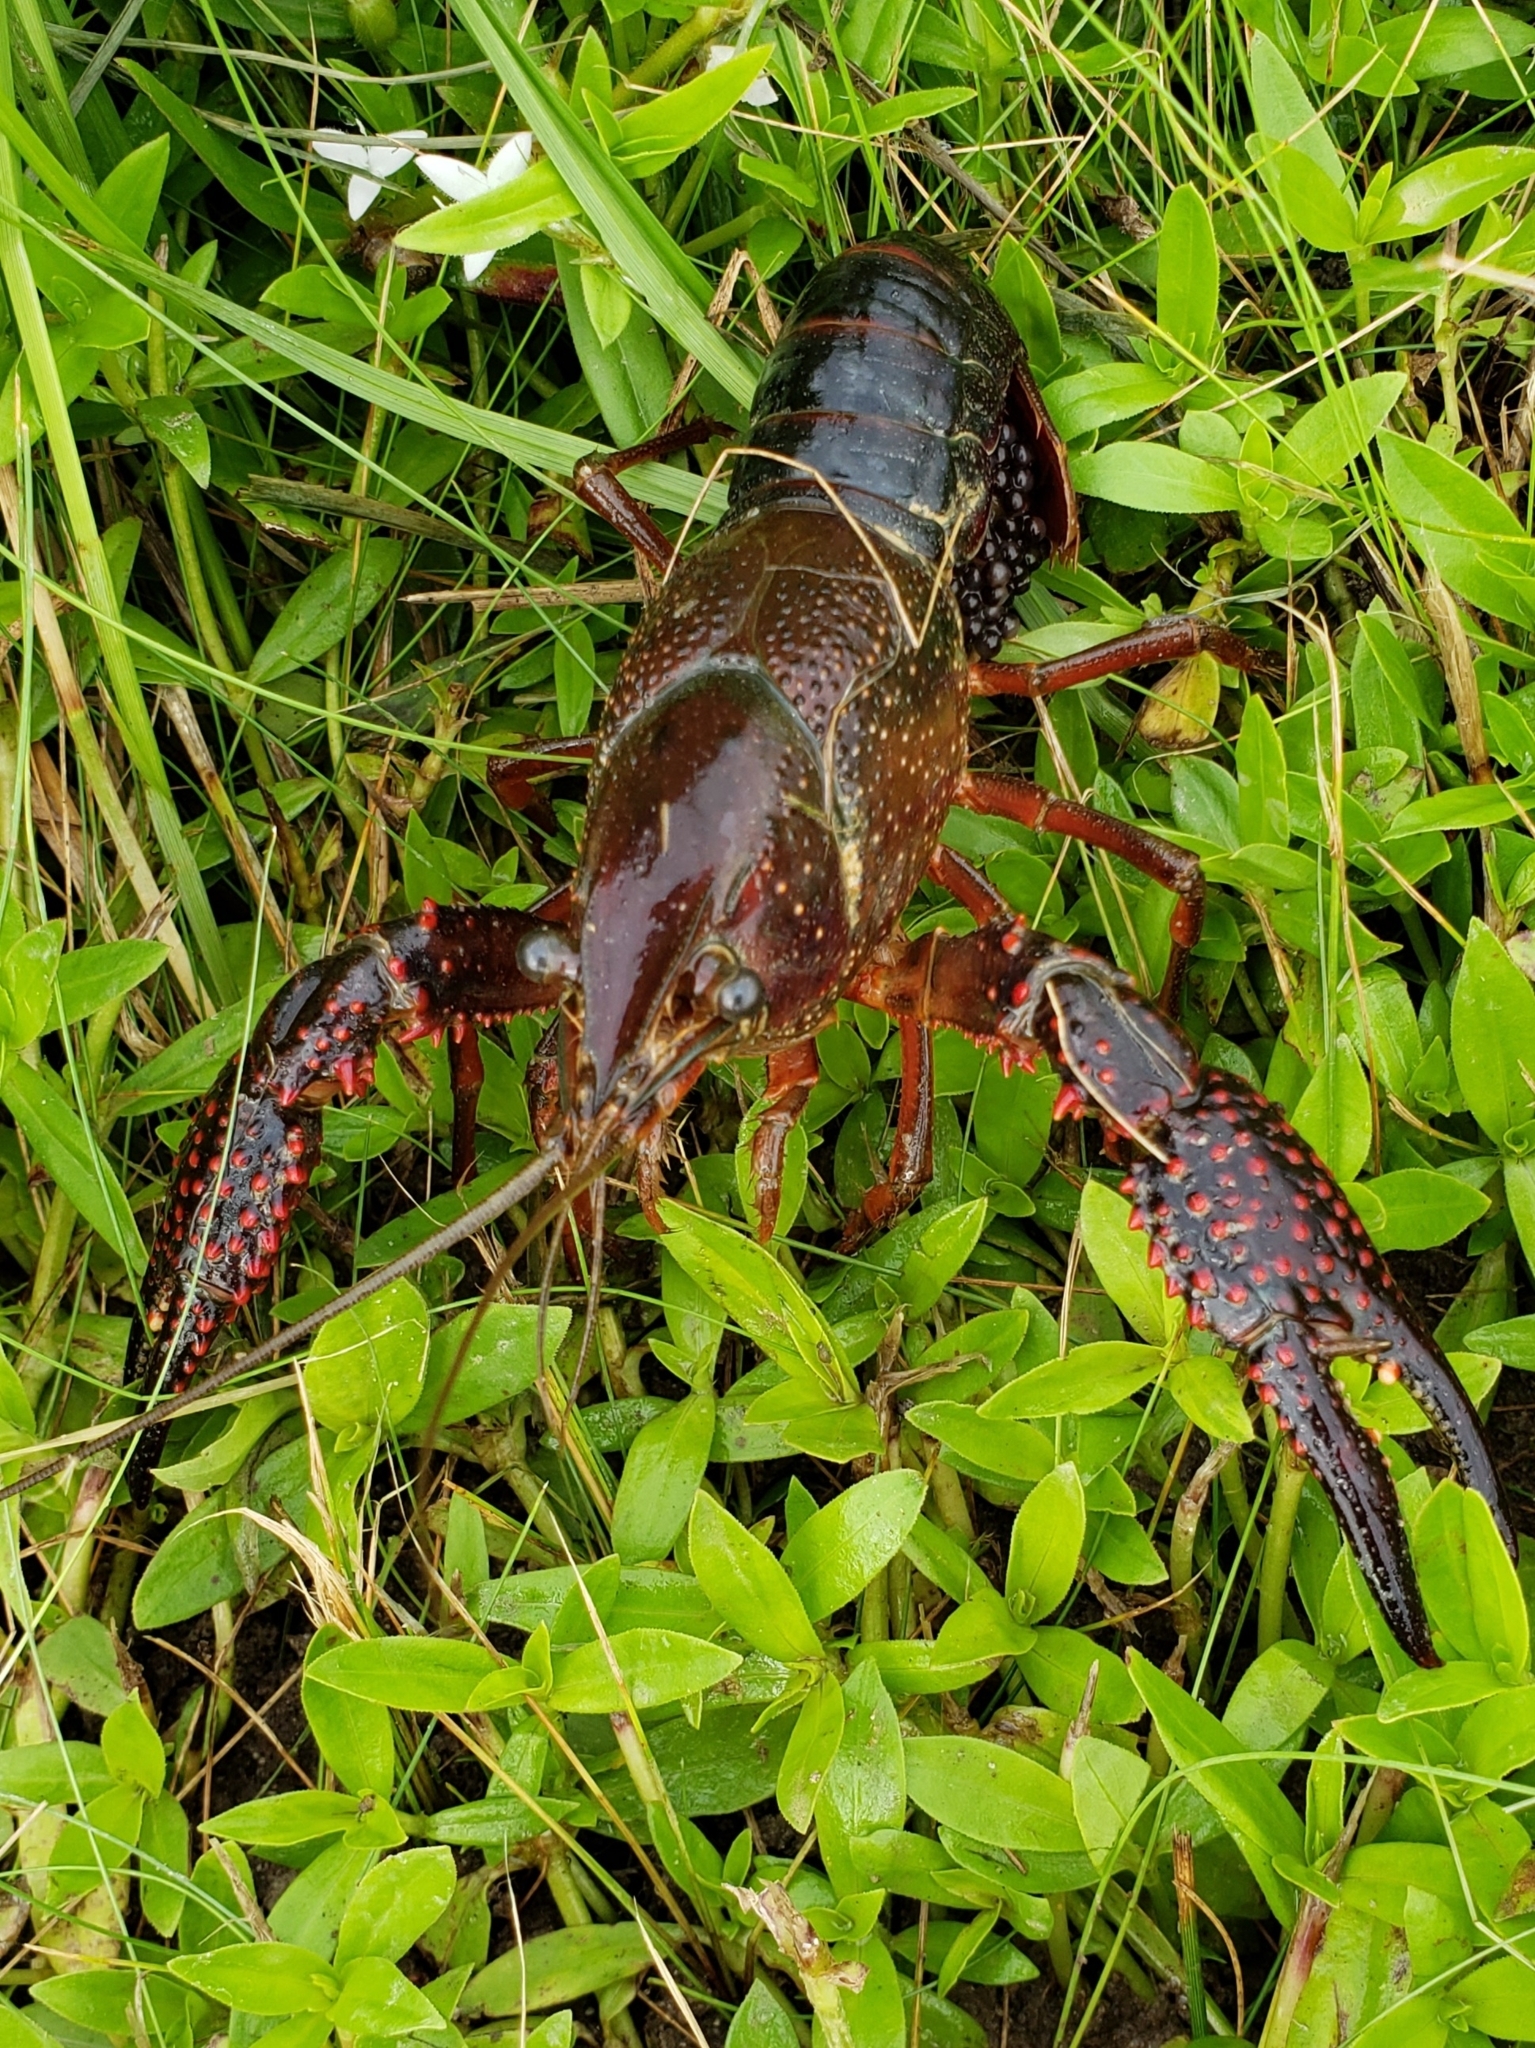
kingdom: Animalia
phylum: Arthropoda
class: Malacostraca
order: Decapoda
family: Cambaridae
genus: Procambarus
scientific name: Procambarus clarkii
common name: Red swamp crayfish
